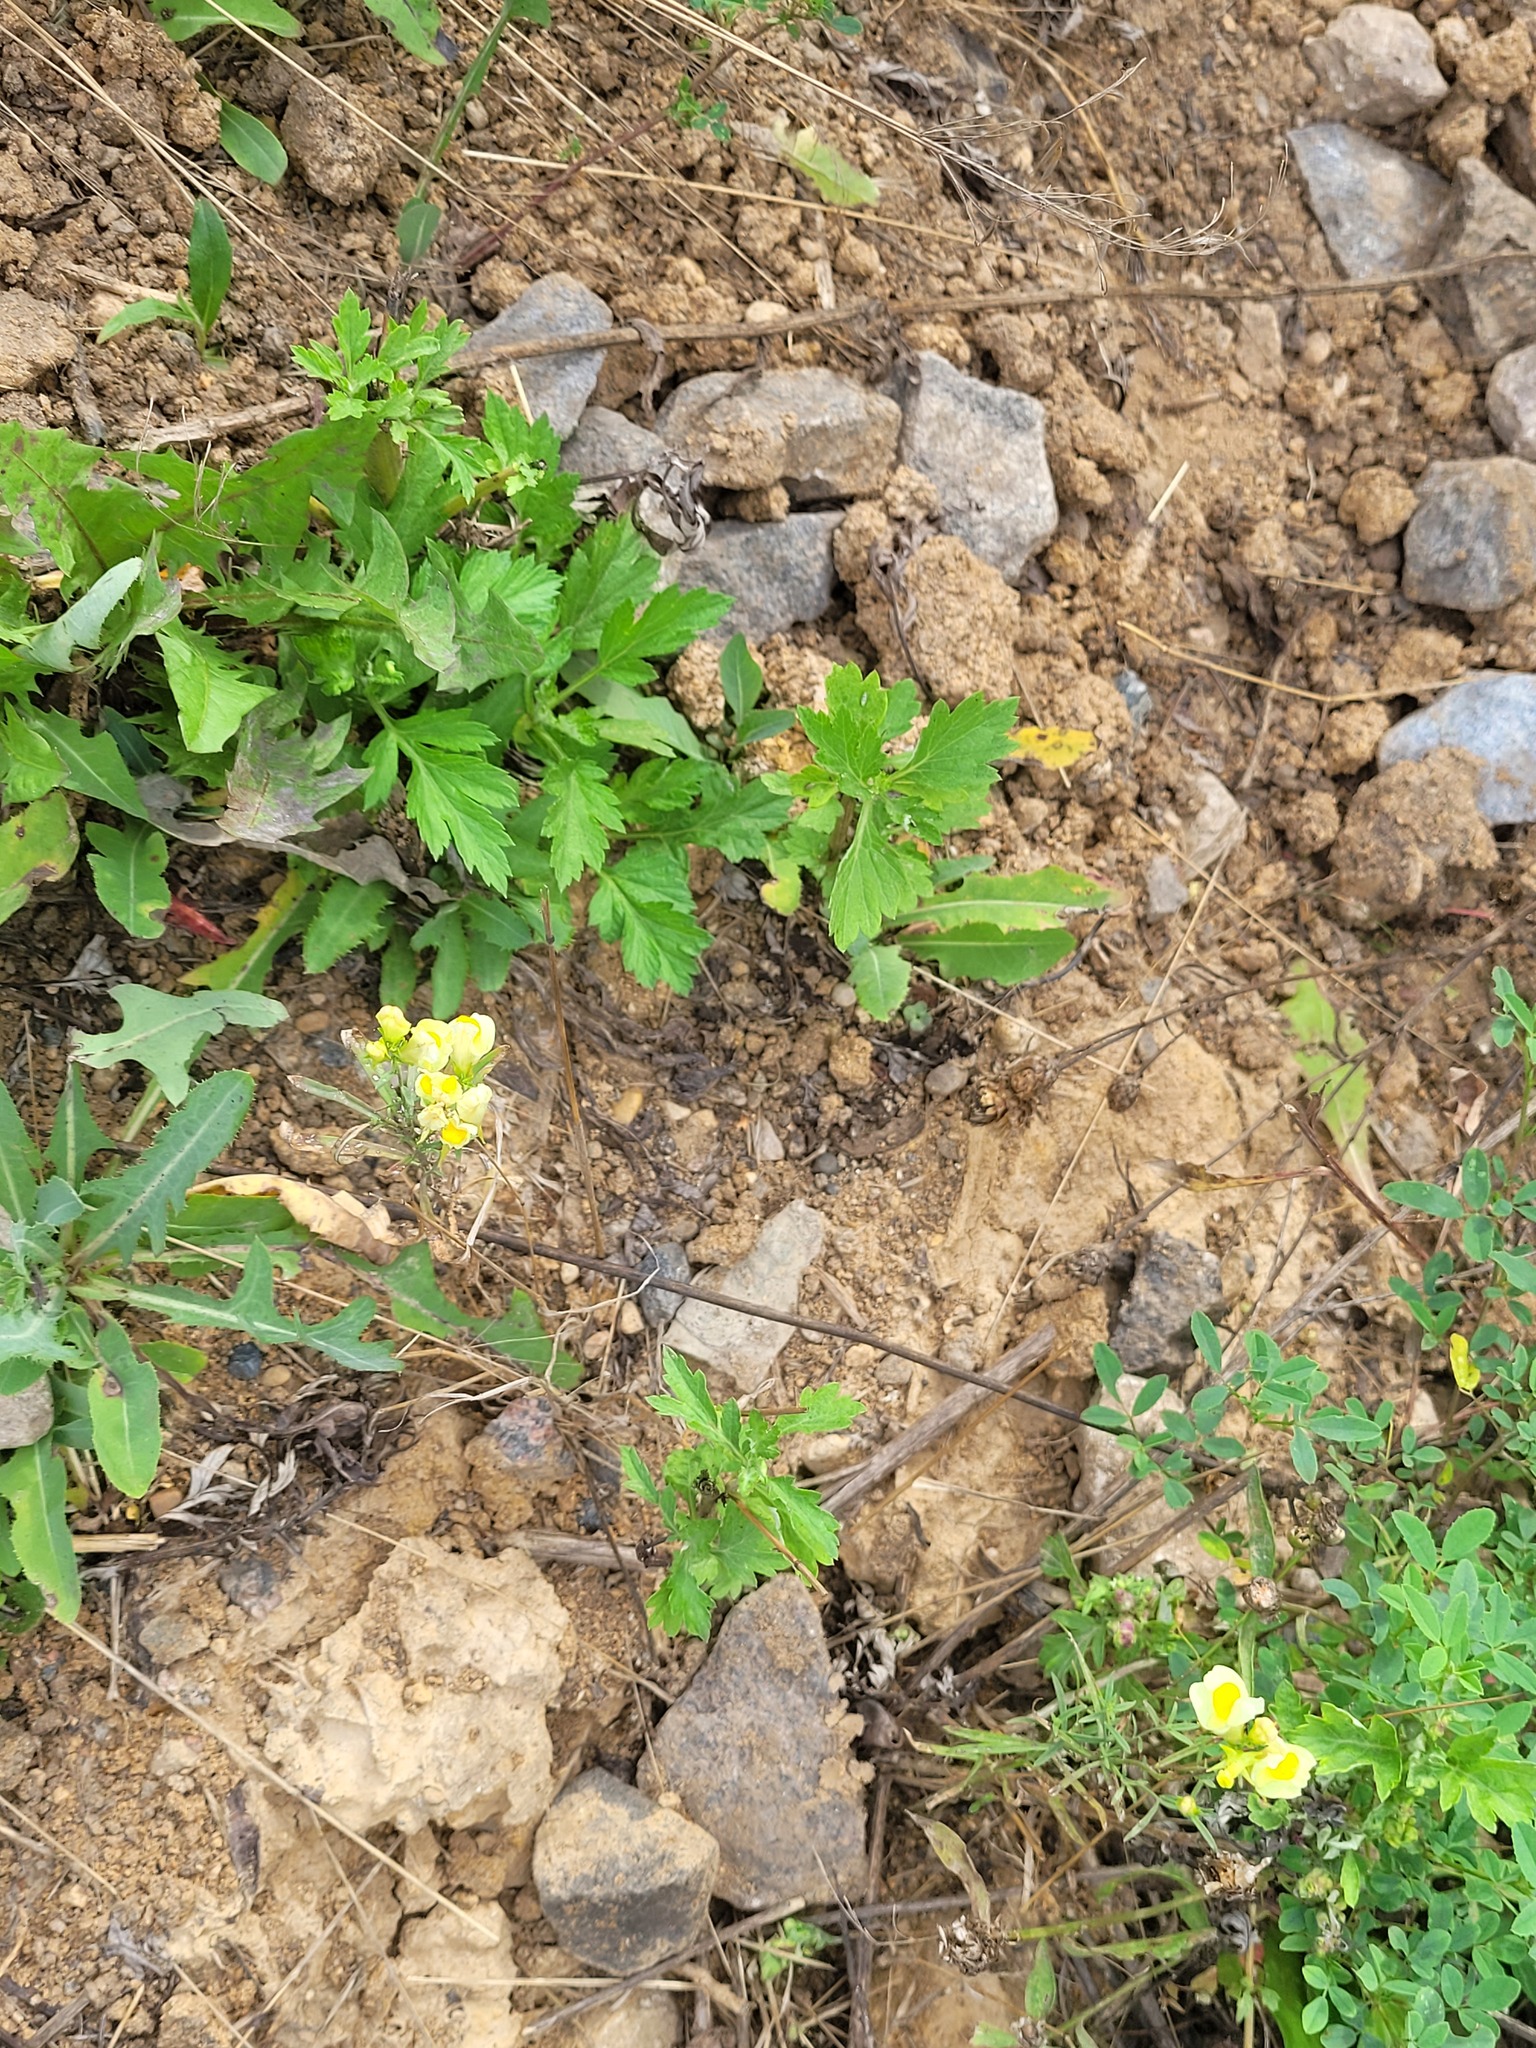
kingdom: Plantae
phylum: Tracheophyta
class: Magnoliopsida
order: Lamiales
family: Plantaginaceae
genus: Linaria
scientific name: Linaria vulgaris
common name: Butter and eggs
